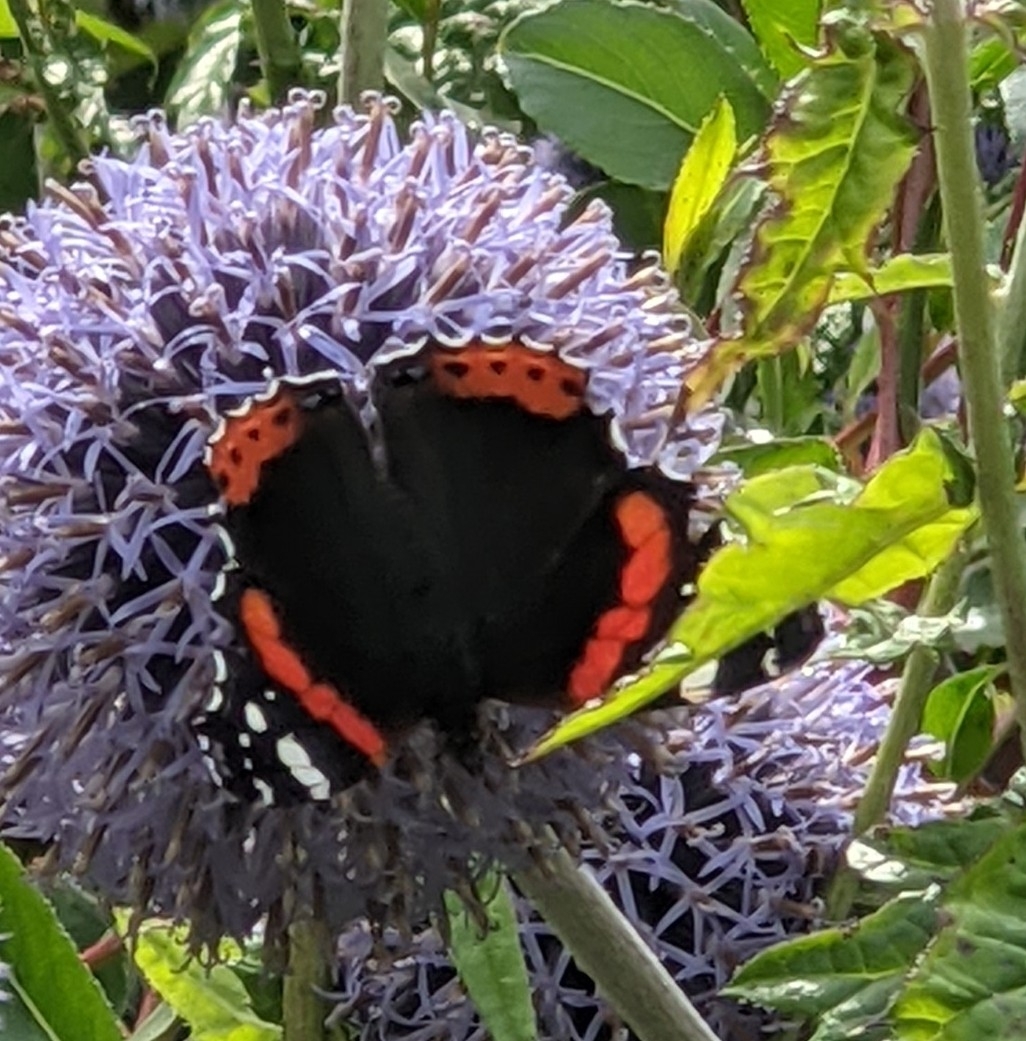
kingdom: Animalia
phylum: Arthropoda
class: Insecta
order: Lepidoptera
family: Nymphalidae
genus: Vanessa
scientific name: Vanessa atalanta
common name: Red admiral
